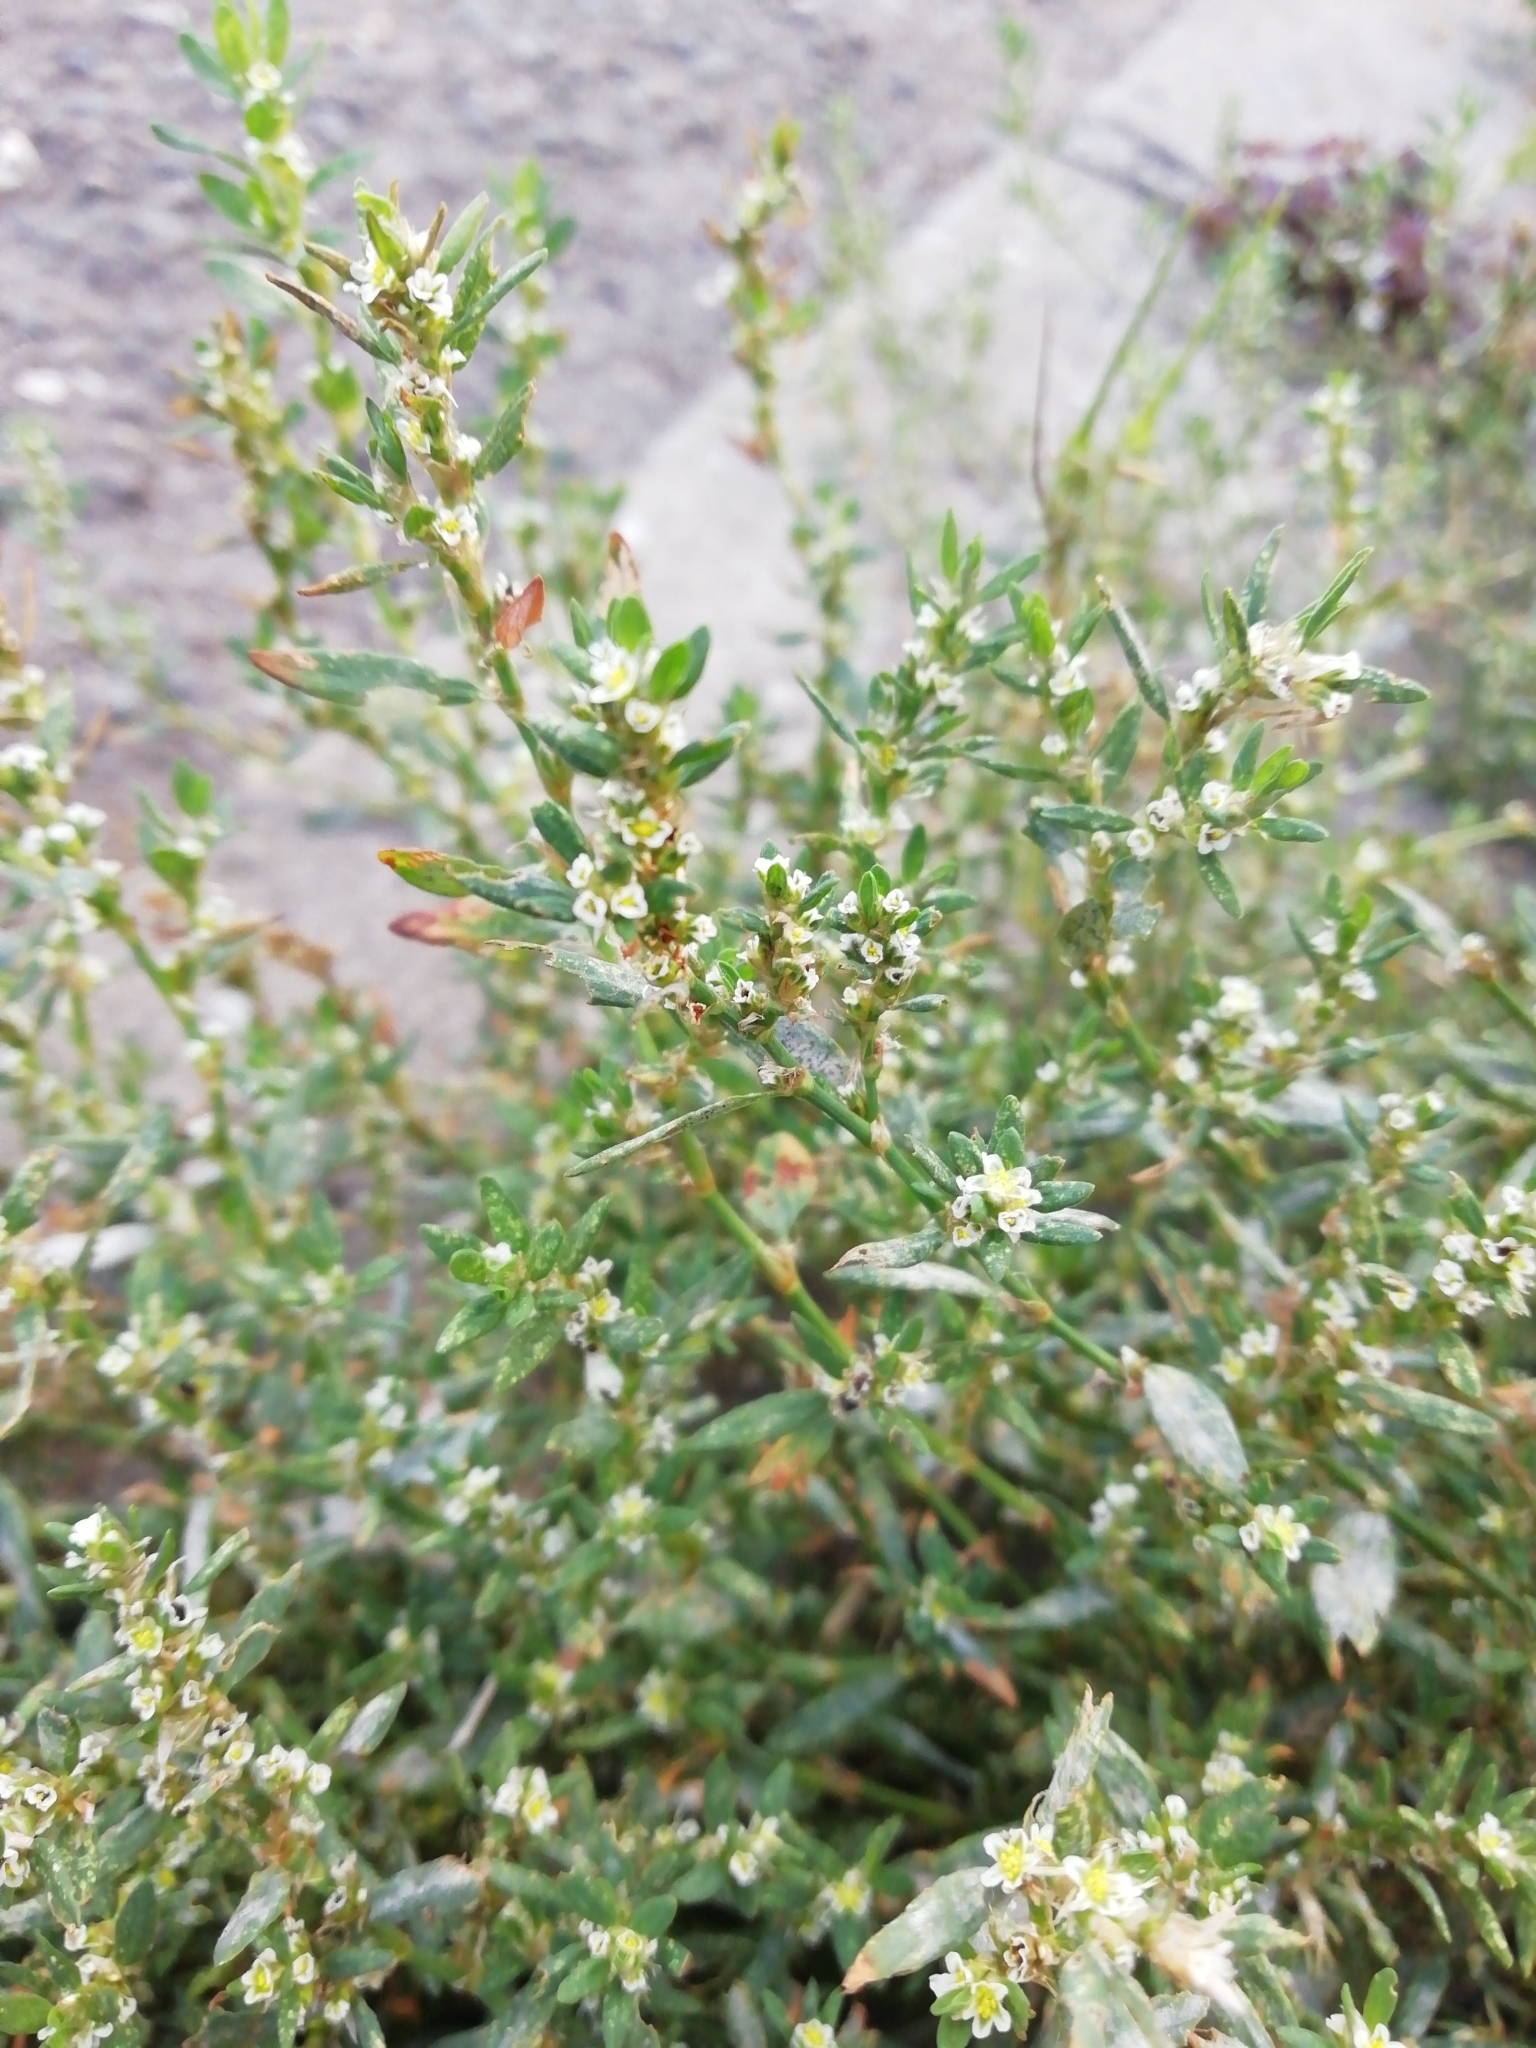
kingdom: Plantae
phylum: Tracheophyta
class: Magnoliopsida
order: Caryophyllales
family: Polygonaceae
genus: Polygonum
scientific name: Polygonum
